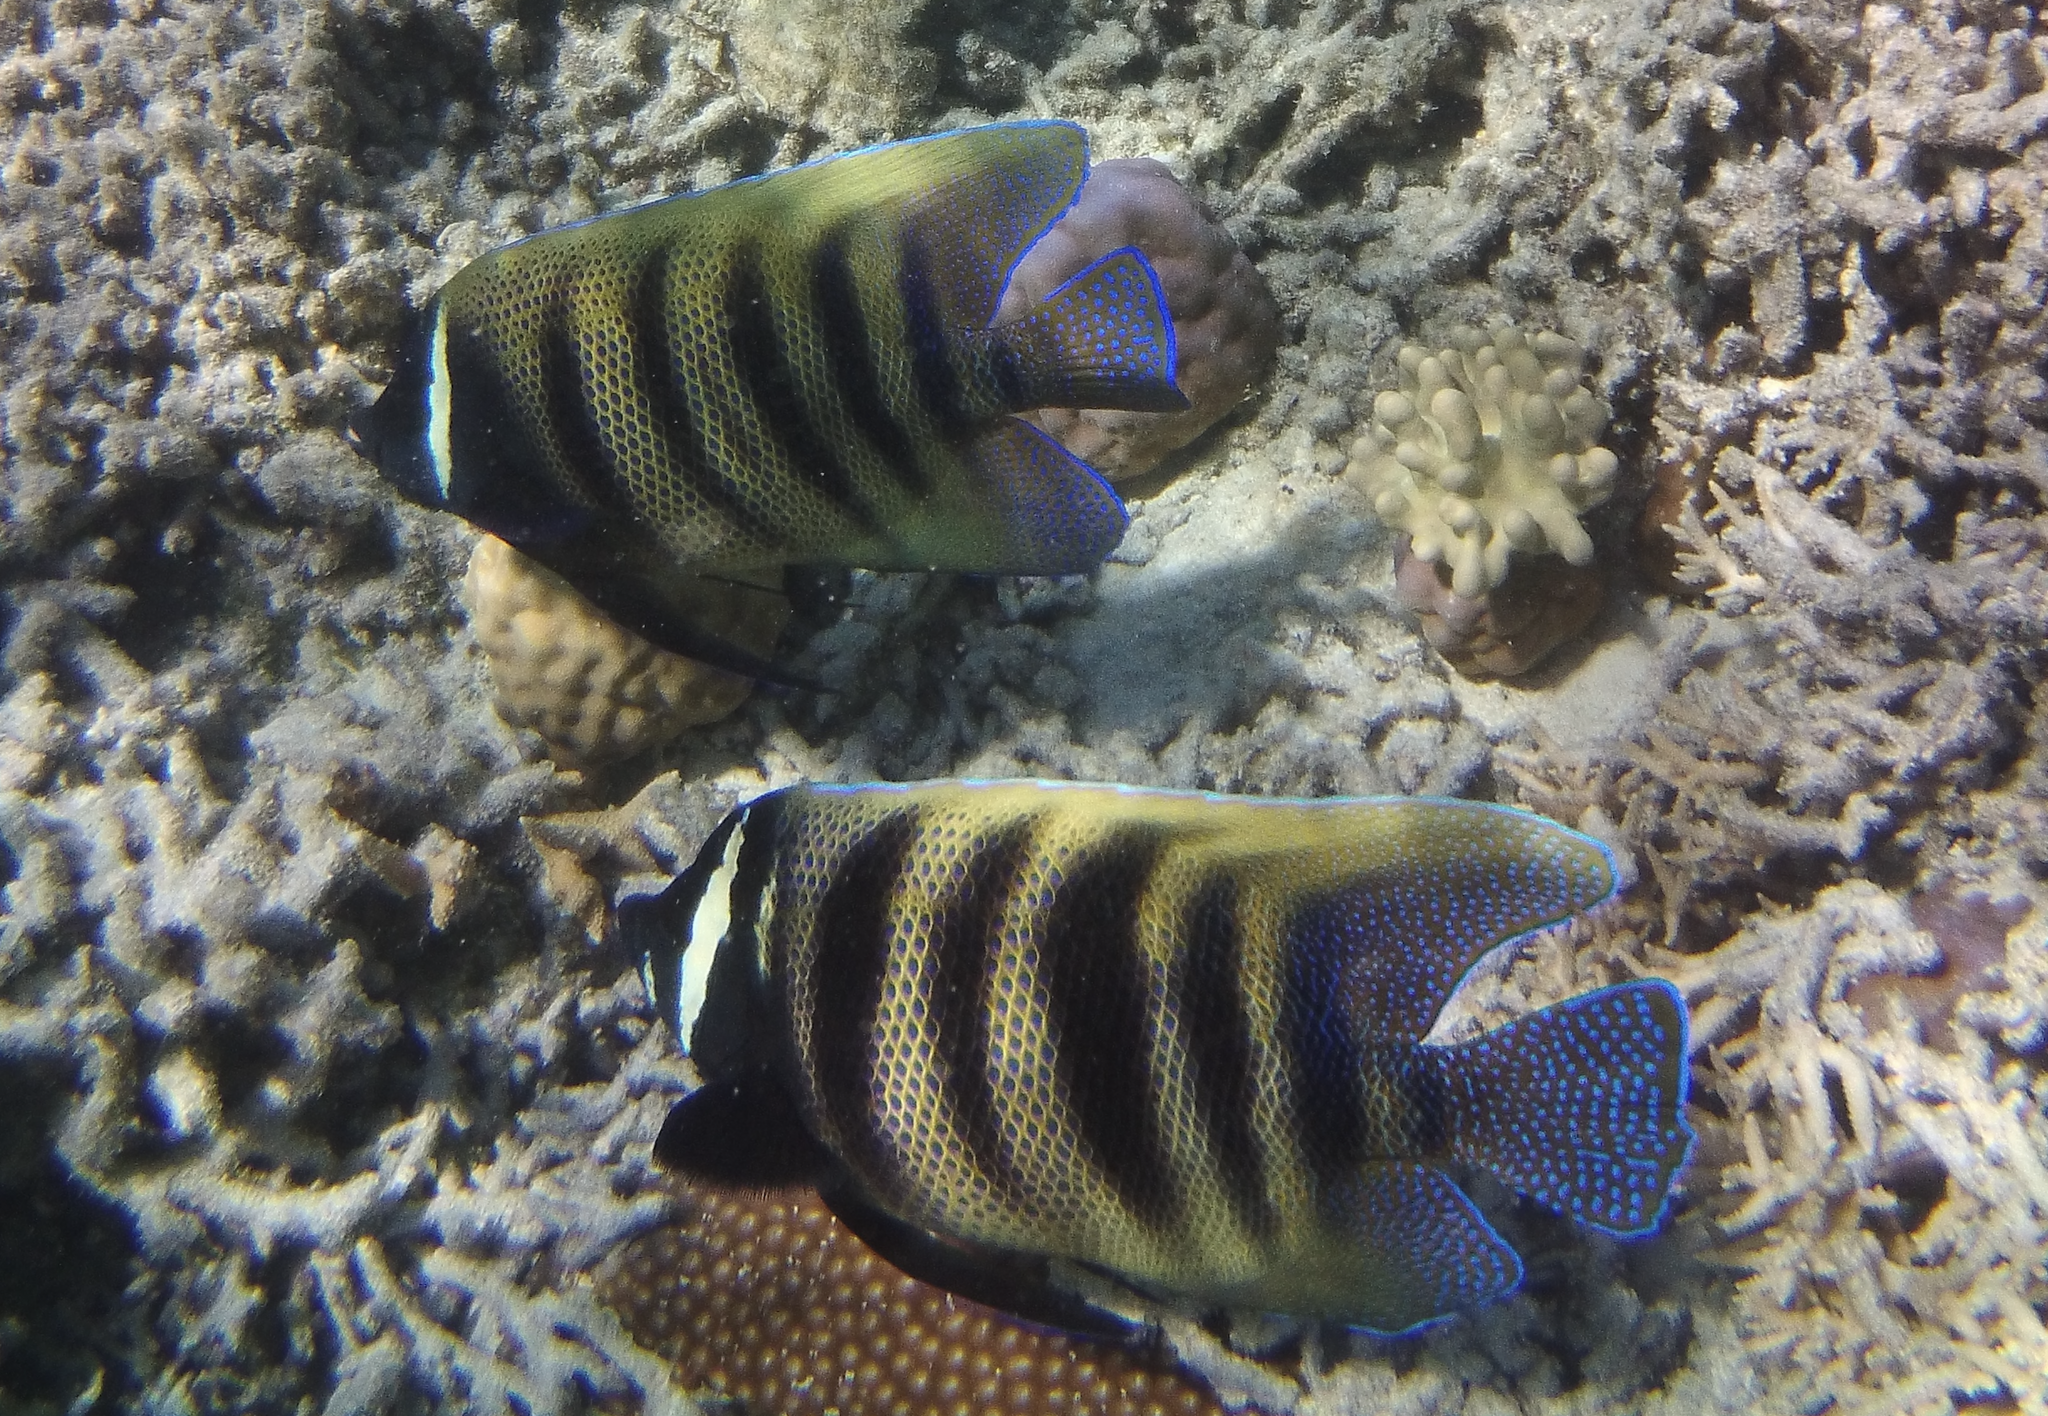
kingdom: Animalia
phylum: Chordata
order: Perciformes
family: Pomacanthidae
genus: Pomacanthus
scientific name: Pomacanthus sexstriatus
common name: Six-banded angelfish
